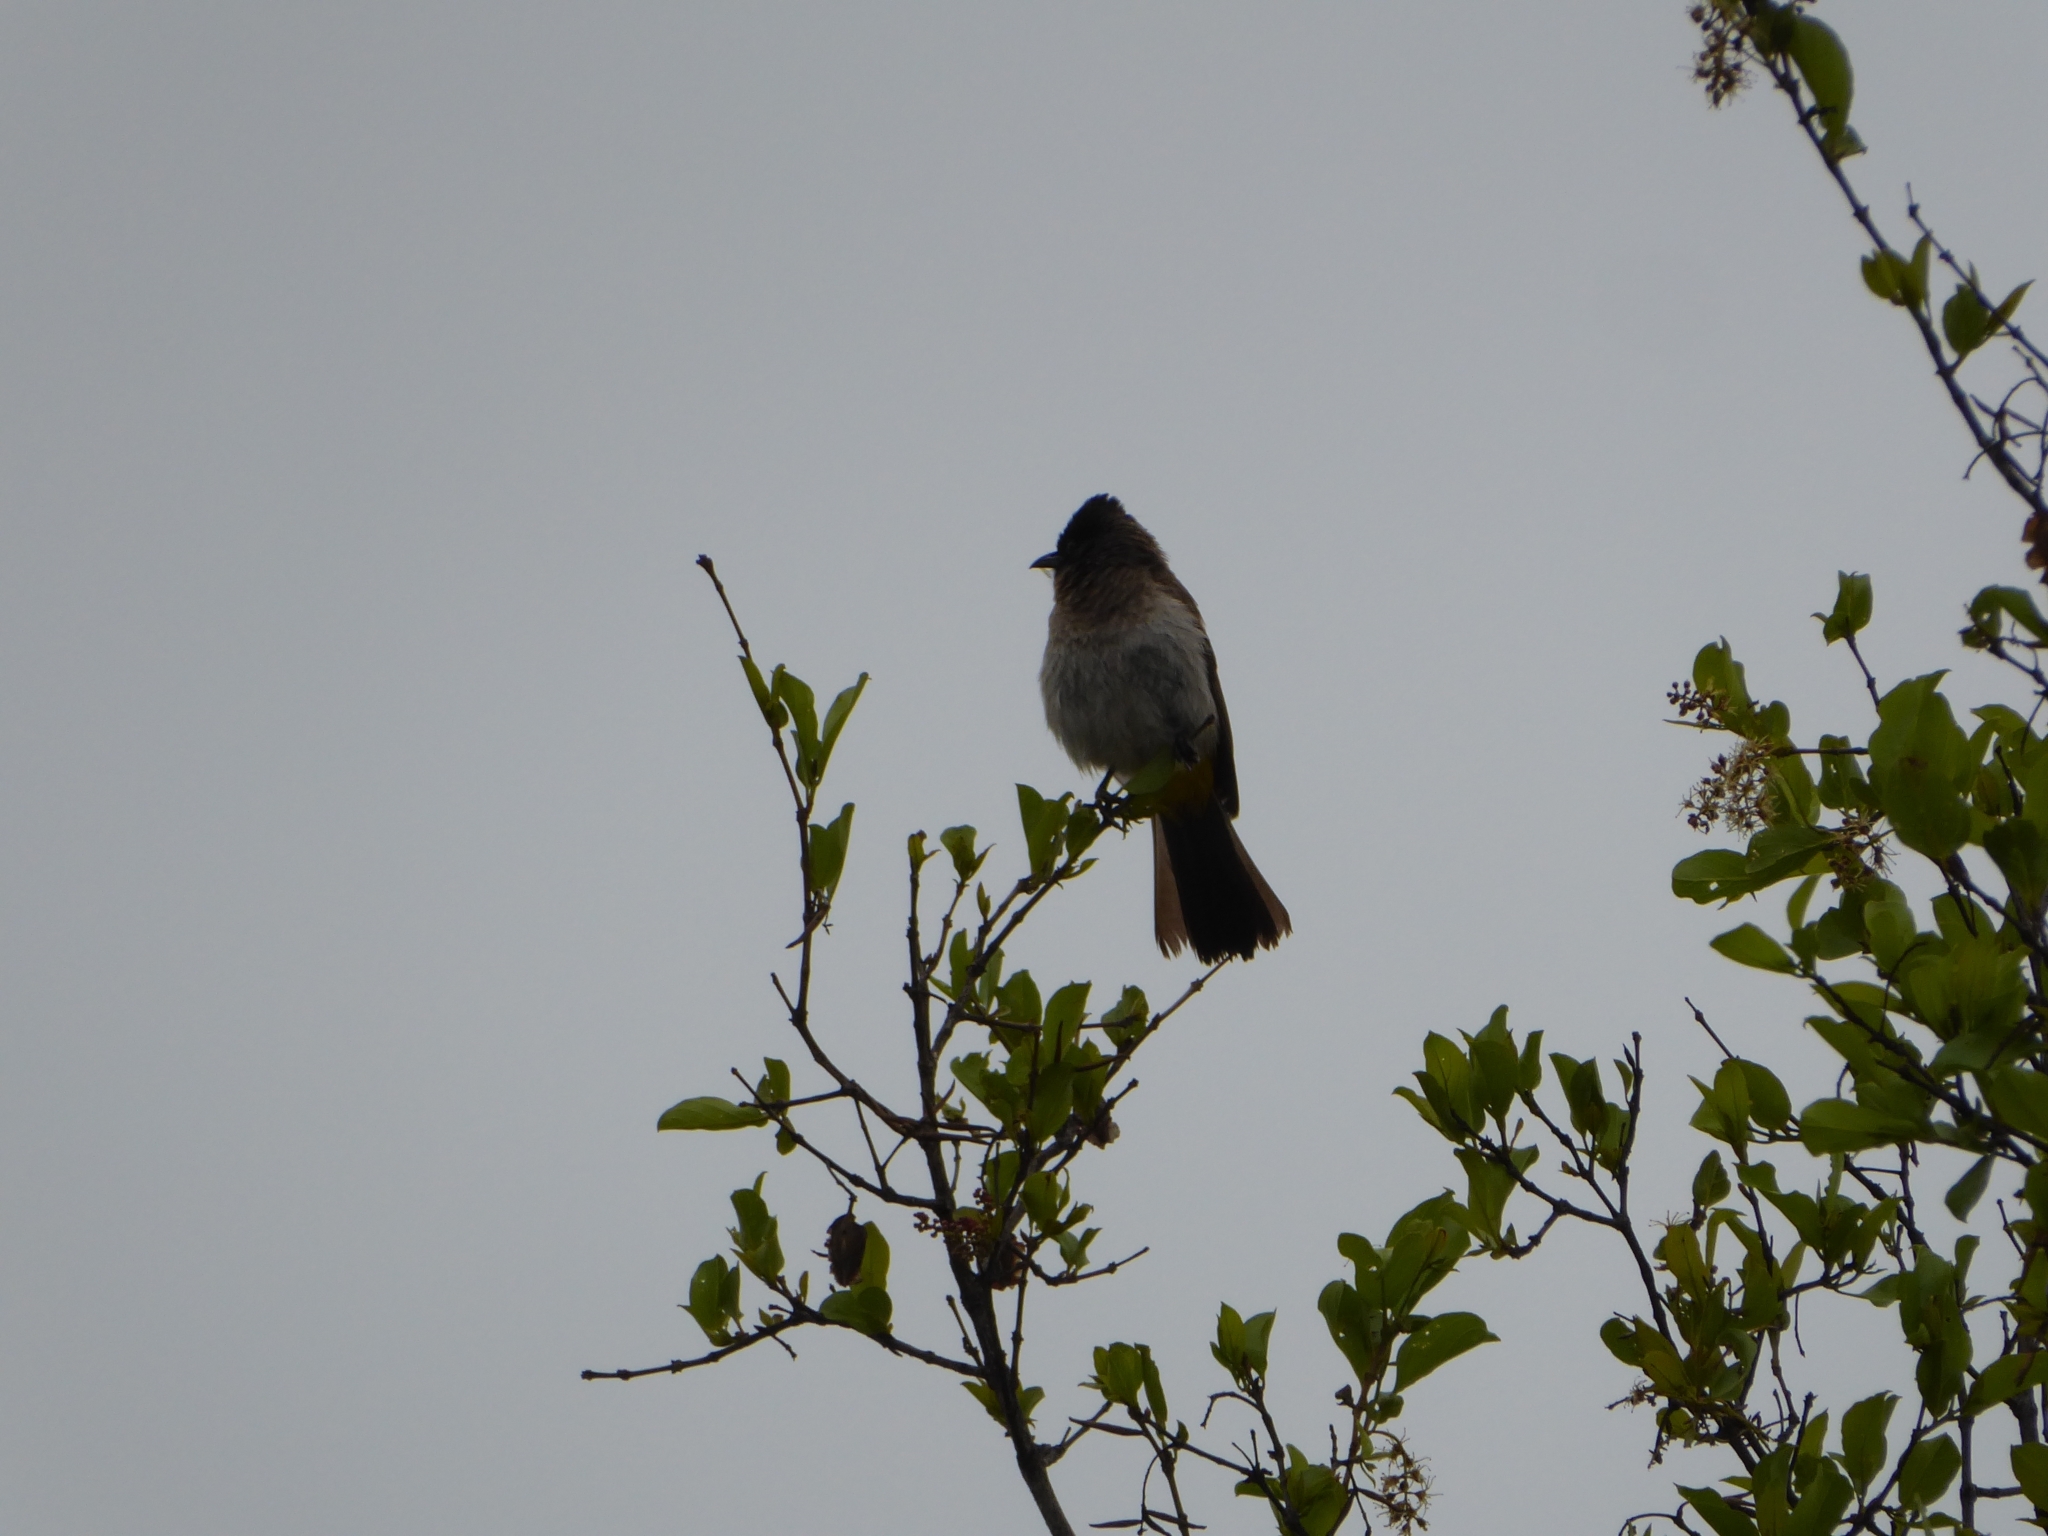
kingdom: Animalia
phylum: Chordata
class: Aves
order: Passeriformes
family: Pycnonotidae
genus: Pycnonotus
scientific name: Pycnonotus barbatus
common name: Common bulbul
